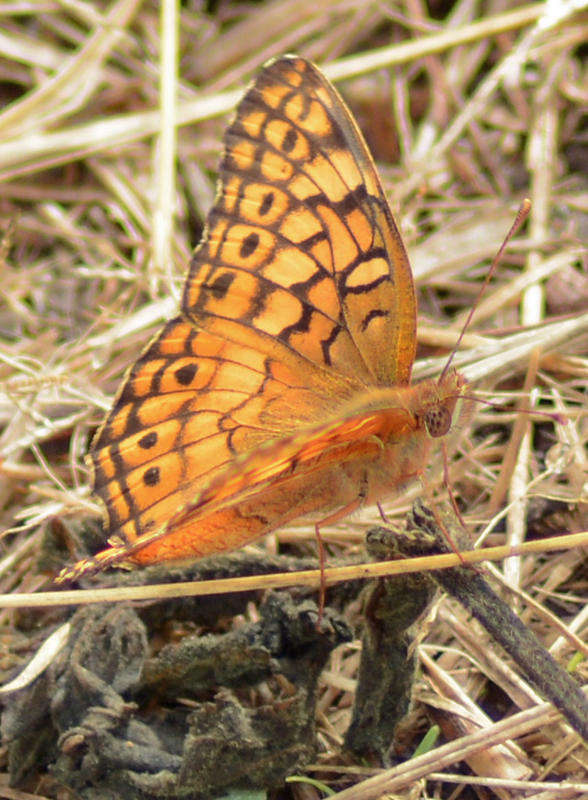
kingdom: Animalia
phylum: Arthropoda
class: Insecta
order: Lepidoptera
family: Nymphalidae
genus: Euptoieta
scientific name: Euptoieta claudia
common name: Variegated fritillary
